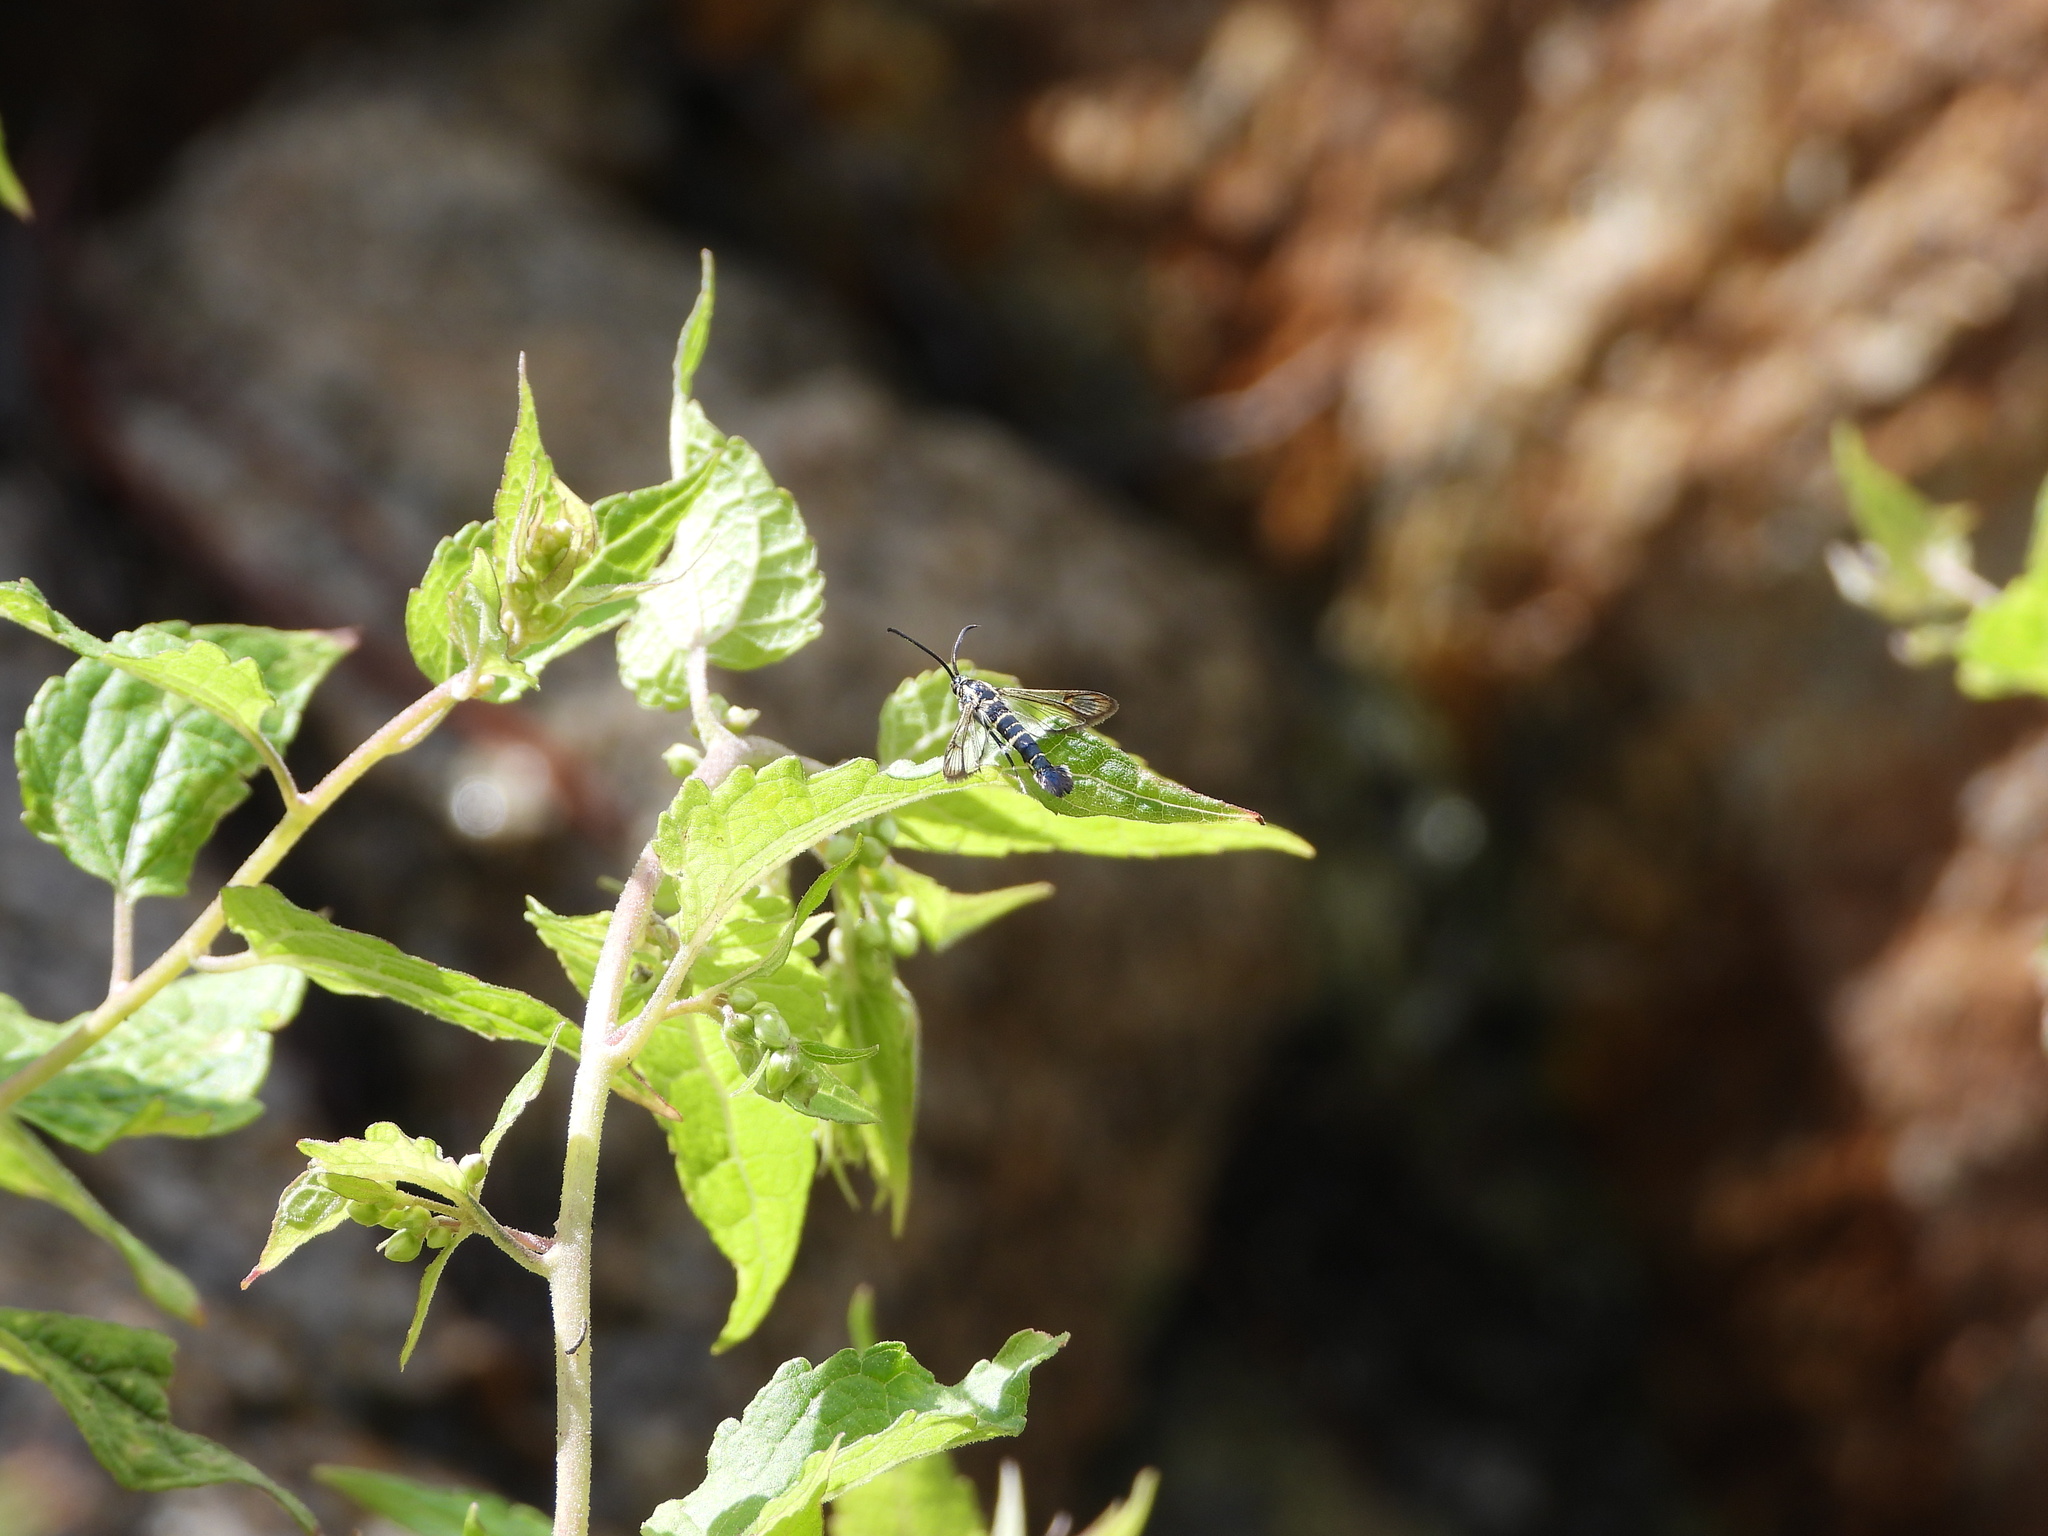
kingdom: Animalia
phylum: Arthropoda
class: Insecta
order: Lepidoptera
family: Sesiidae
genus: Carmenta
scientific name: Carmenta engelhardti
